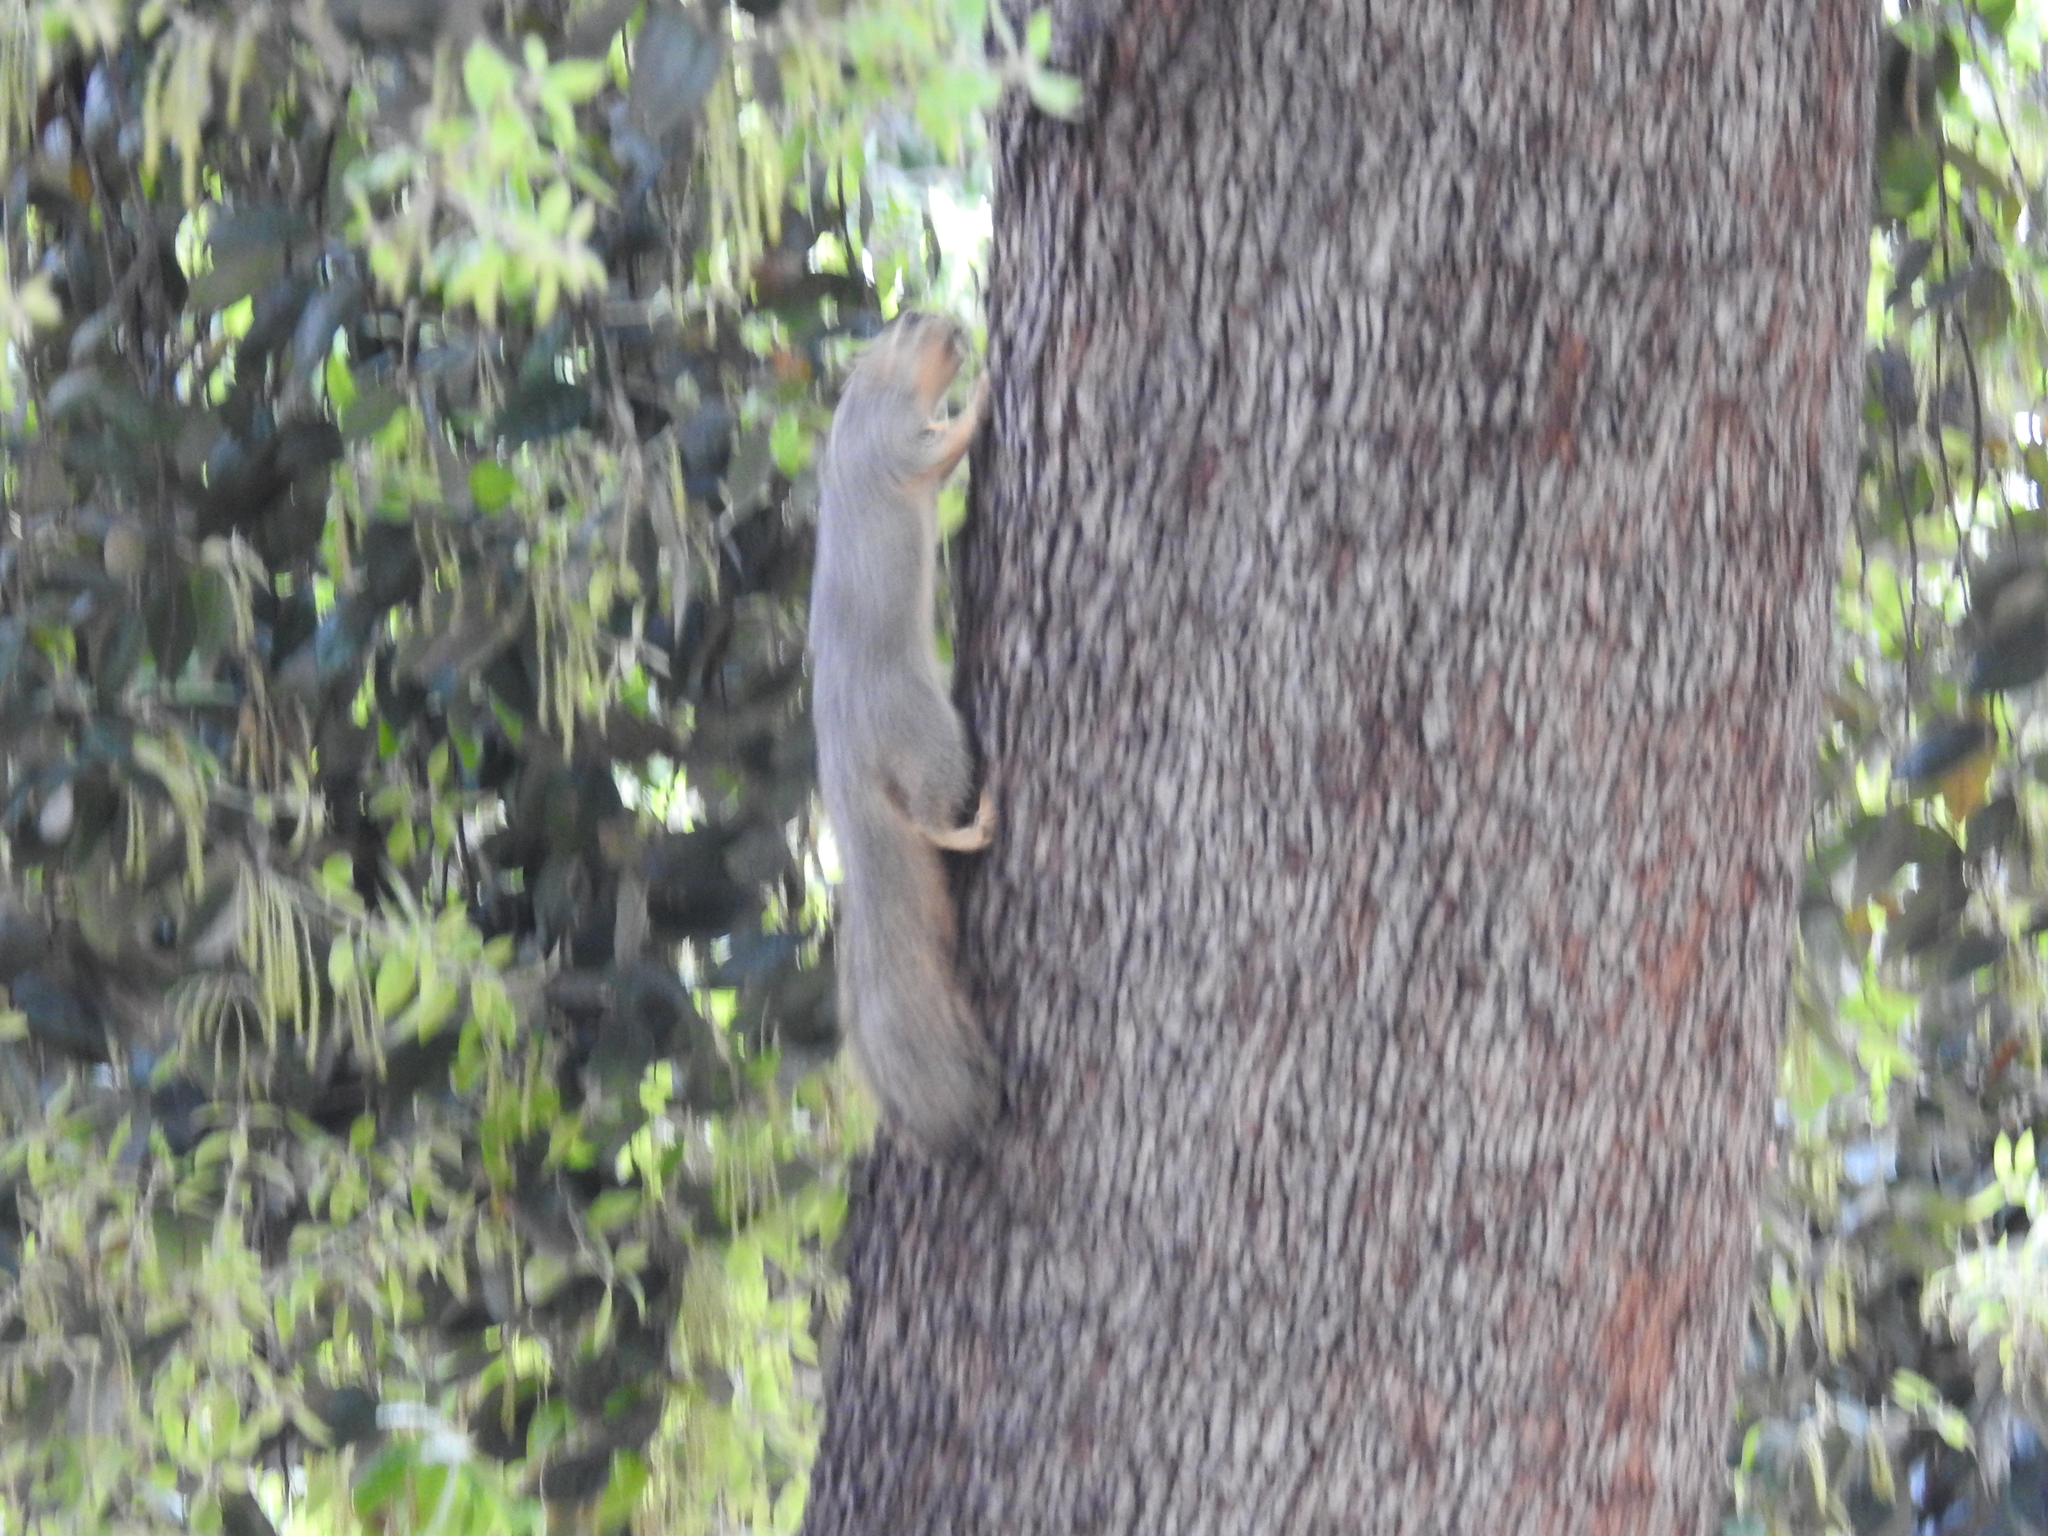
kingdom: Animalia
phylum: Chordata
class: Mammalia
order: Rodentia
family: Sciuridae
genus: Sciurus
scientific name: Sciurus niger
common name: Fox squirrel
